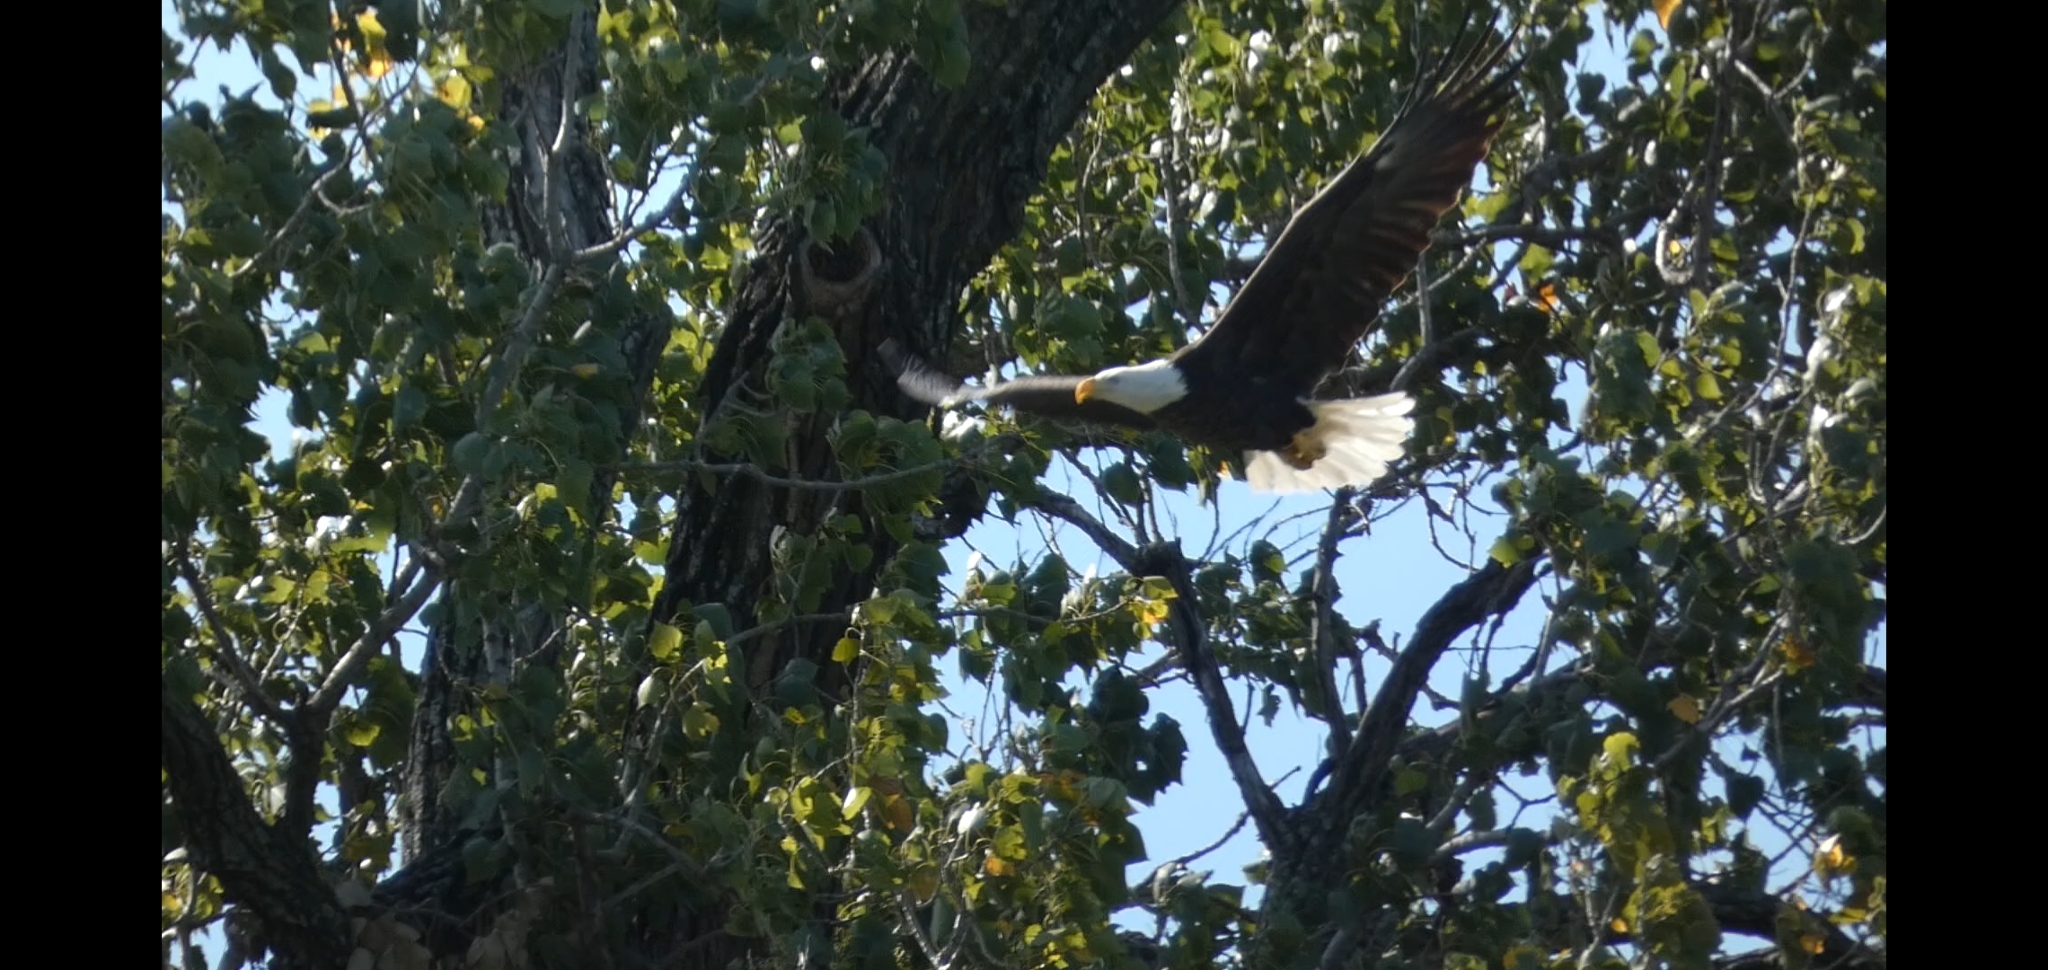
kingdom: Animalia
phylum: Chordata
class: Aves
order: Accipitriformes
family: Accipitridae
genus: Haliaeetus
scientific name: Haliaeetus leucocephalus
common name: Bald eagle
